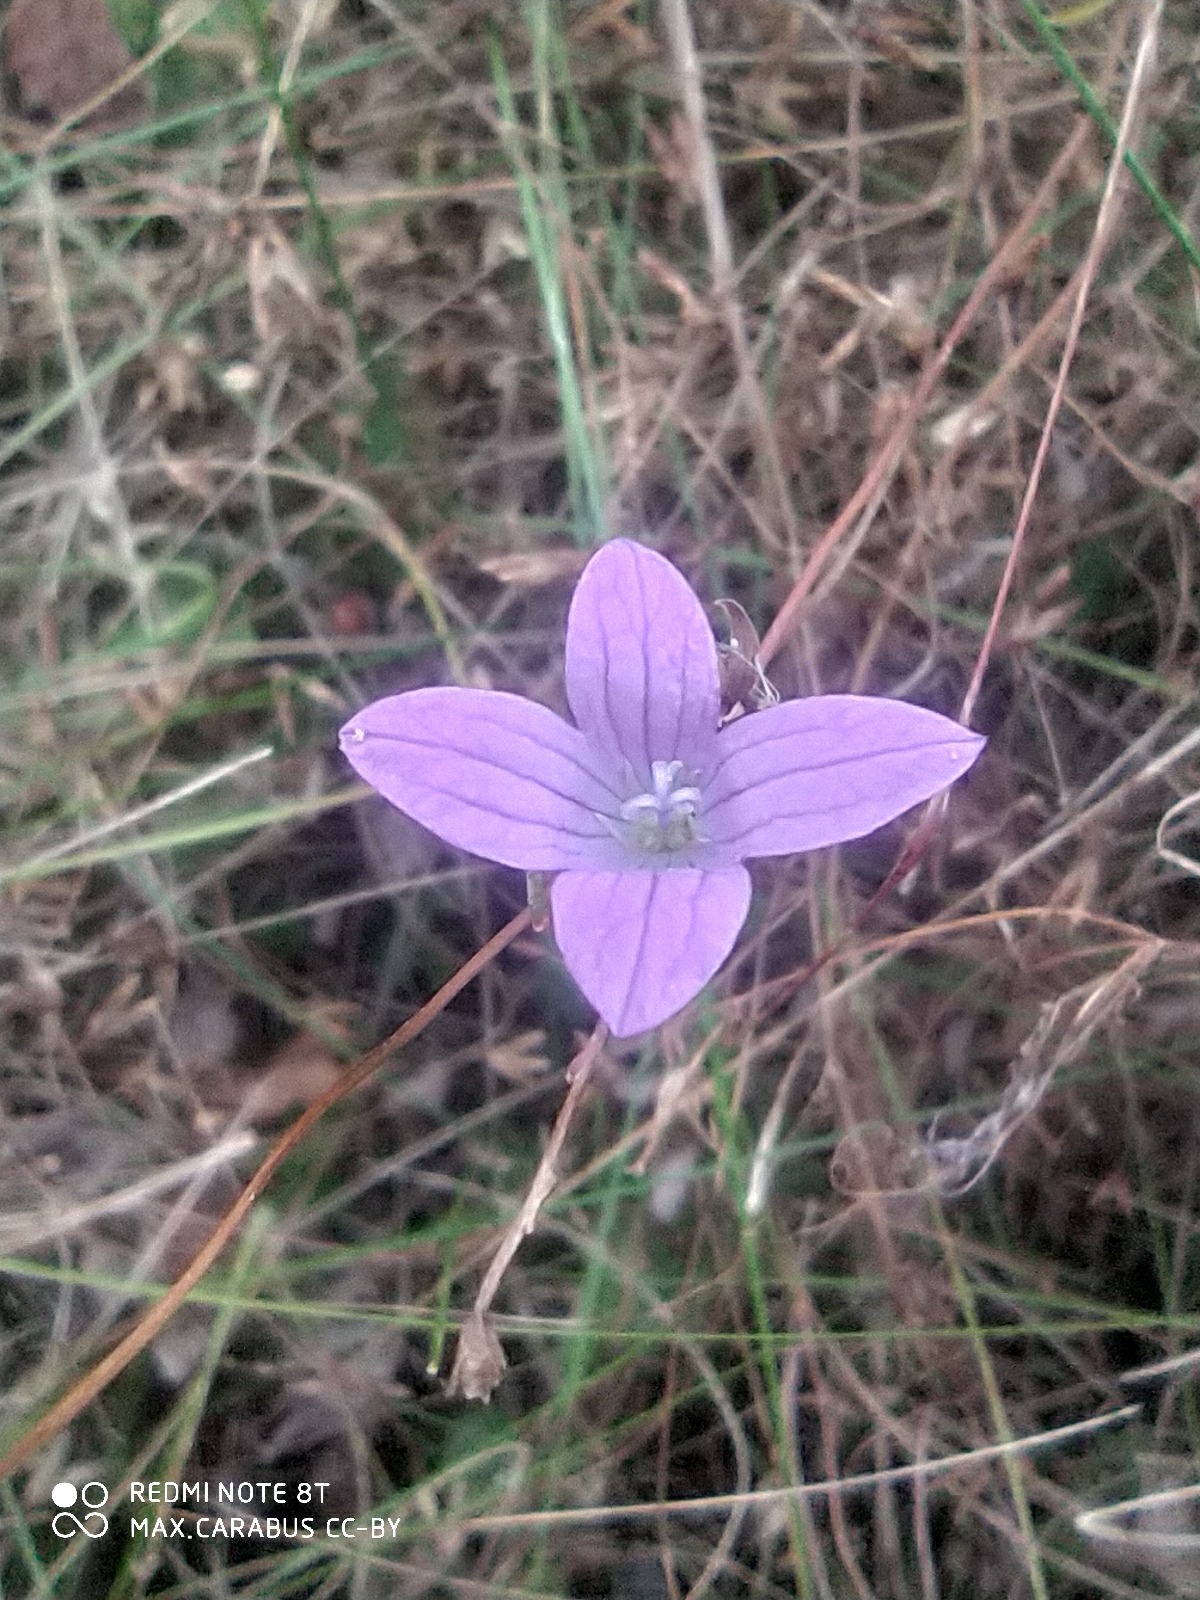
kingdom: Plantae
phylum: Tracheophyta
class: Magnoliopsida
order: Asterales
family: Campanulaceae
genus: Campanula
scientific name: Campanula patula
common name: Spreading bellflower
